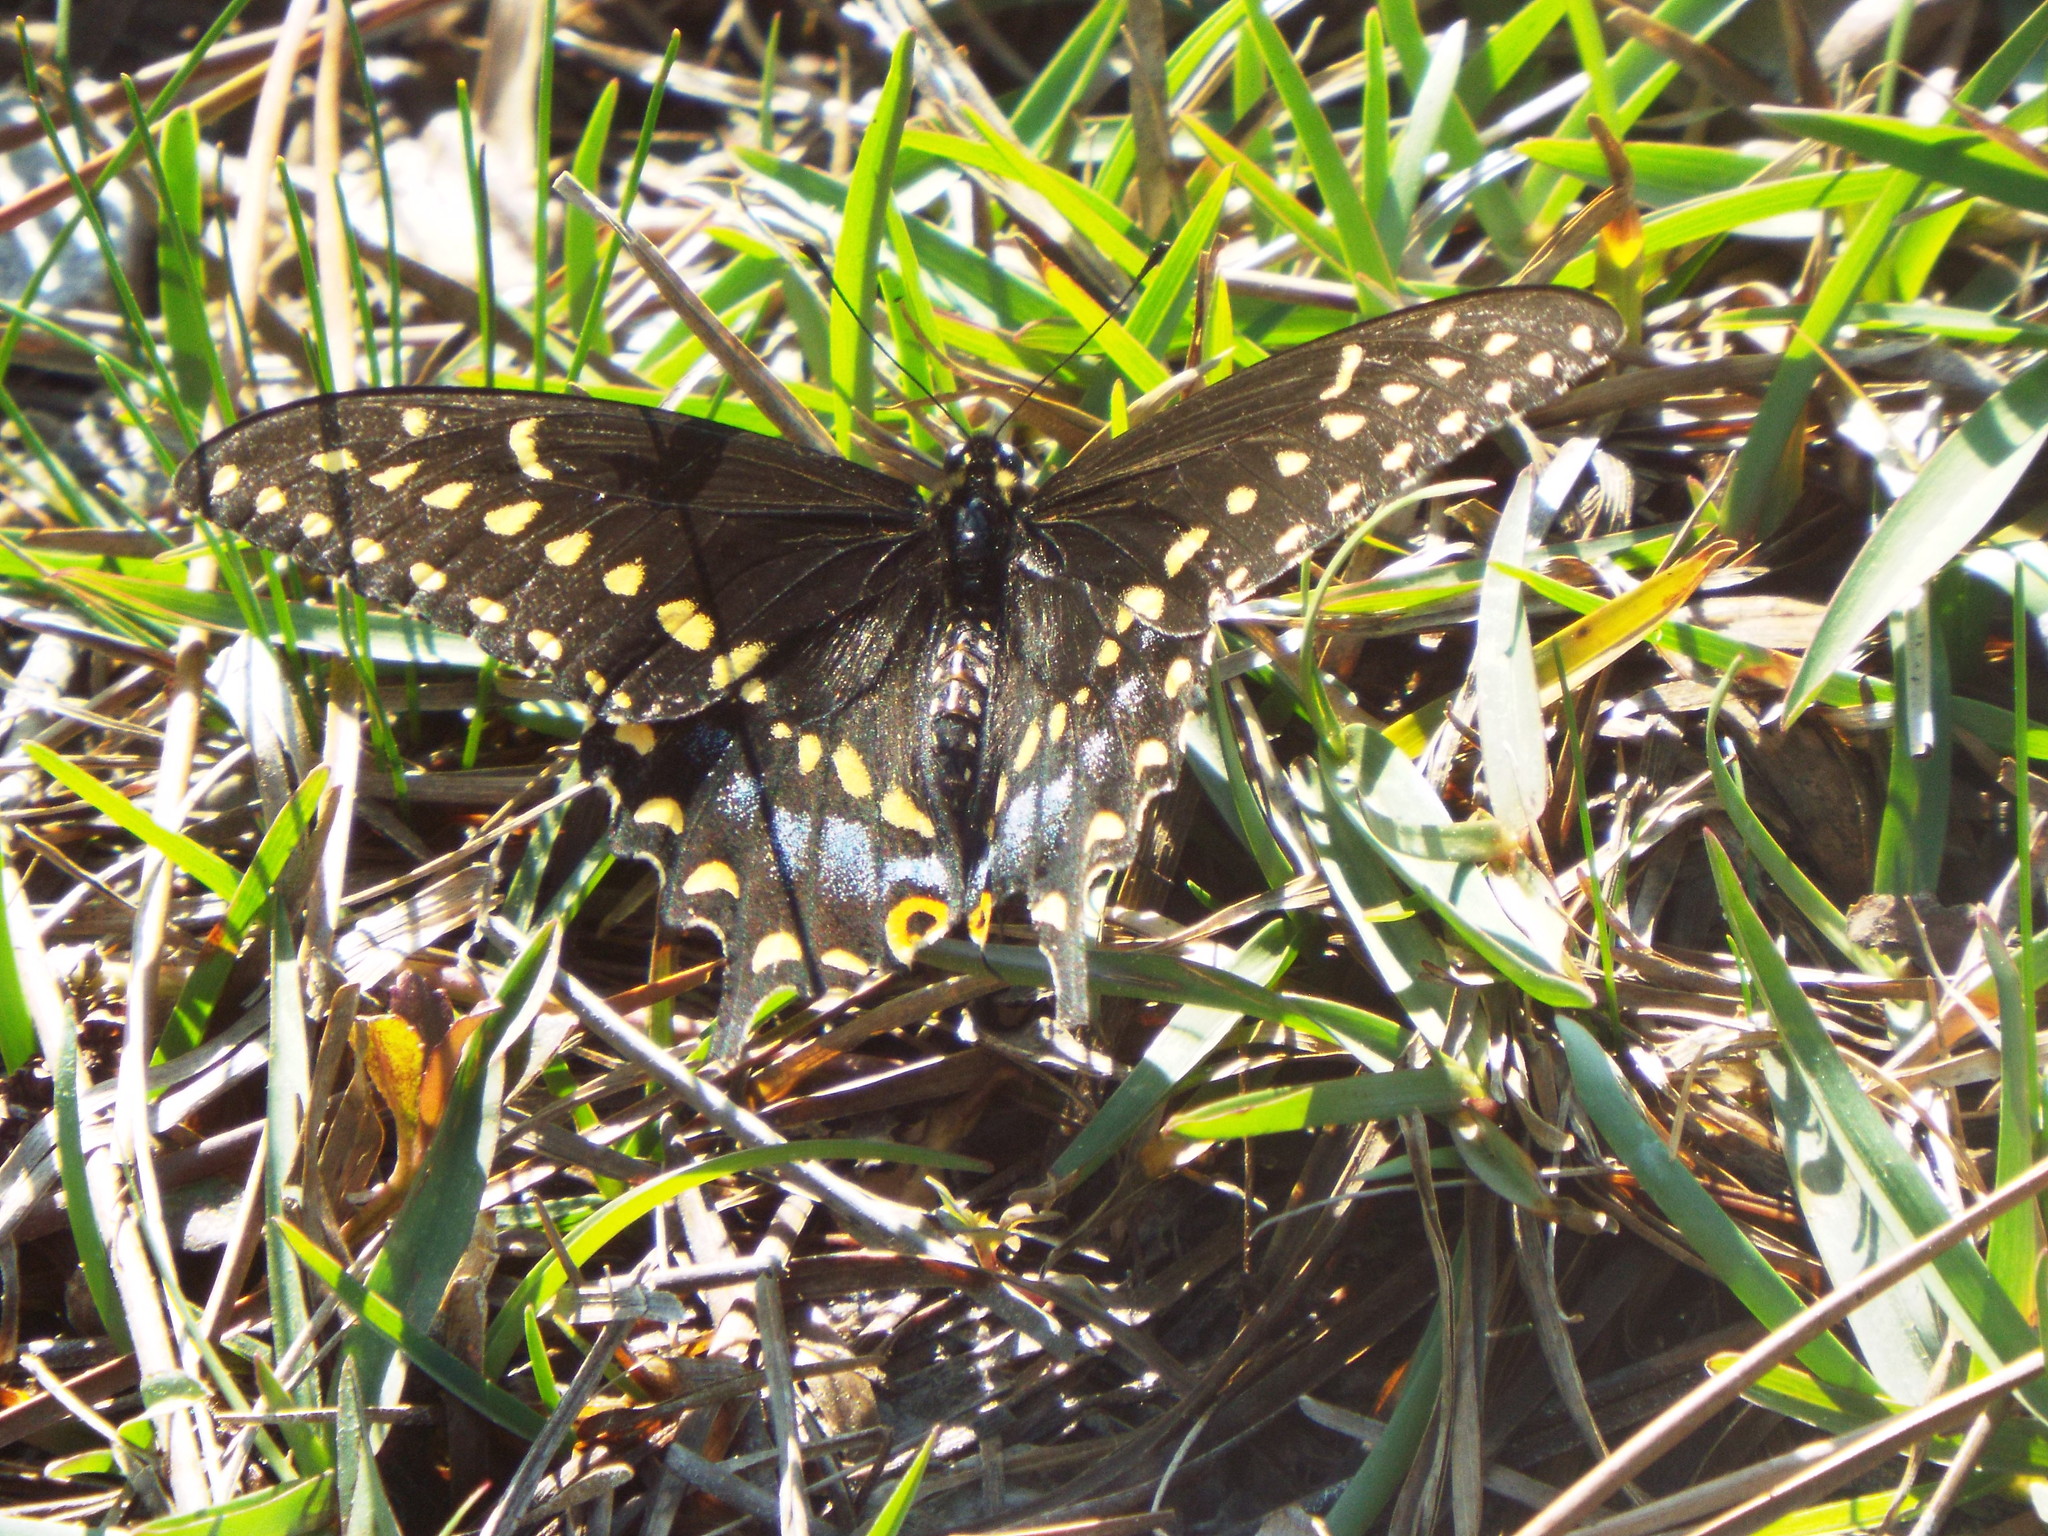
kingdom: Animalia
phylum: Arthropoda
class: Insecta
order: Lepidoptera
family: Papilionidae
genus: Papilio
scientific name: Papilio polyxenes
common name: Black swallowtail
